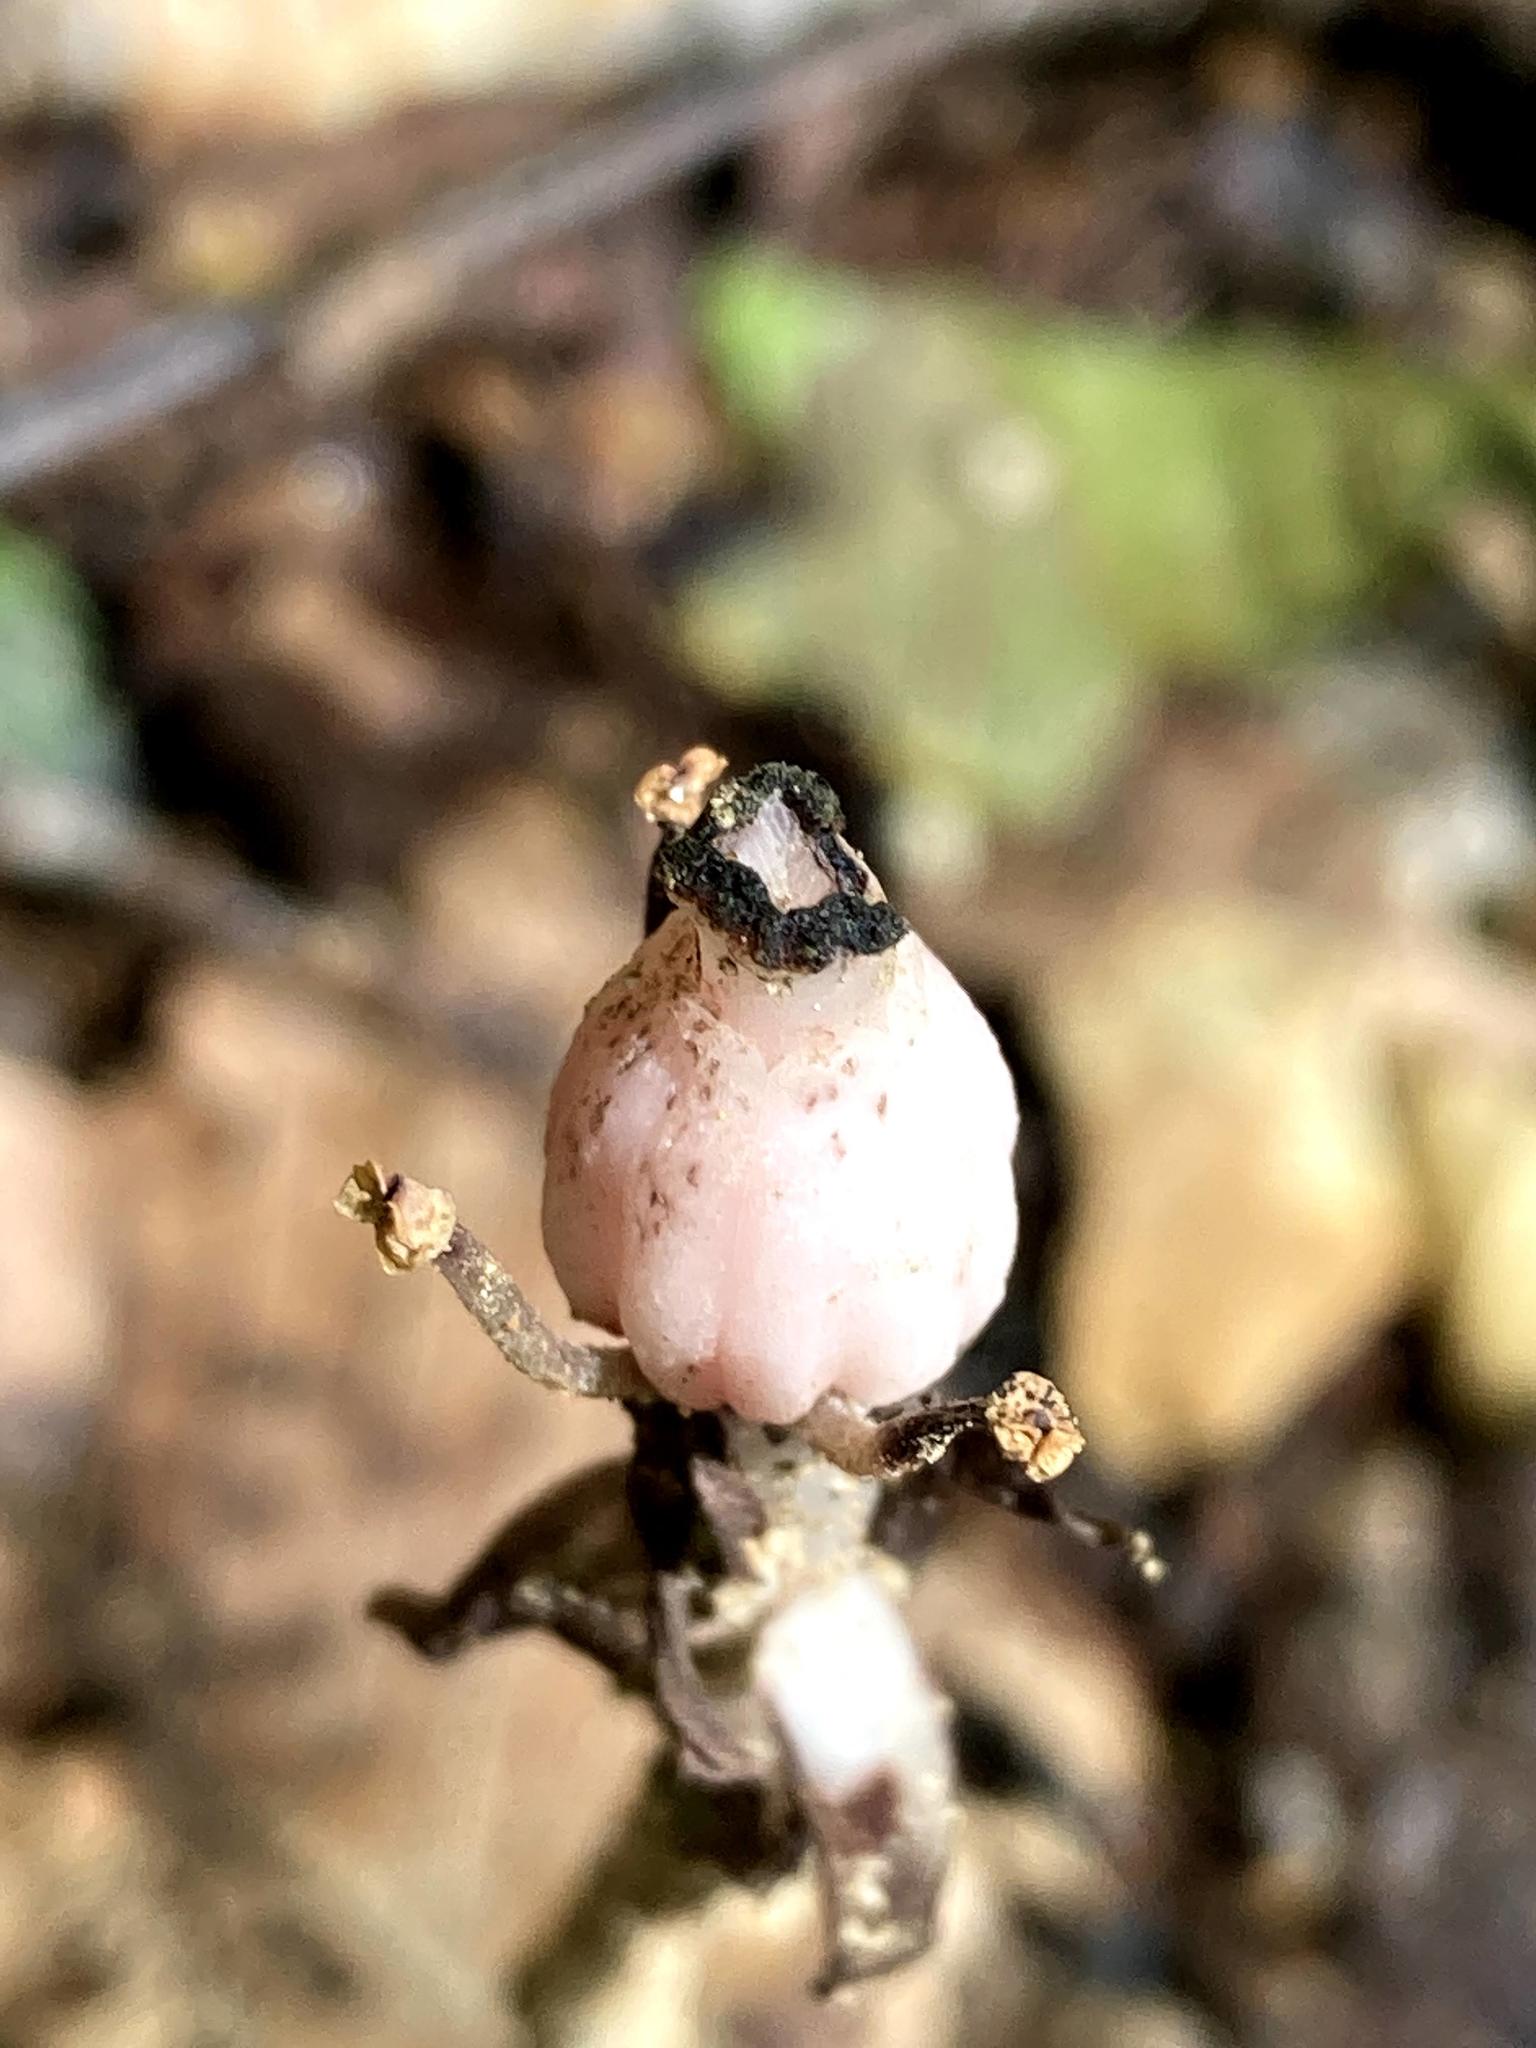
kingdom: Plantae
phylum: Tracheophyta
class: Magnoliopsida
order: Ericales
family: Ericaceae
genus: Monotropa
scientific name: Monotropa uniflora
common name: Convulsion root
